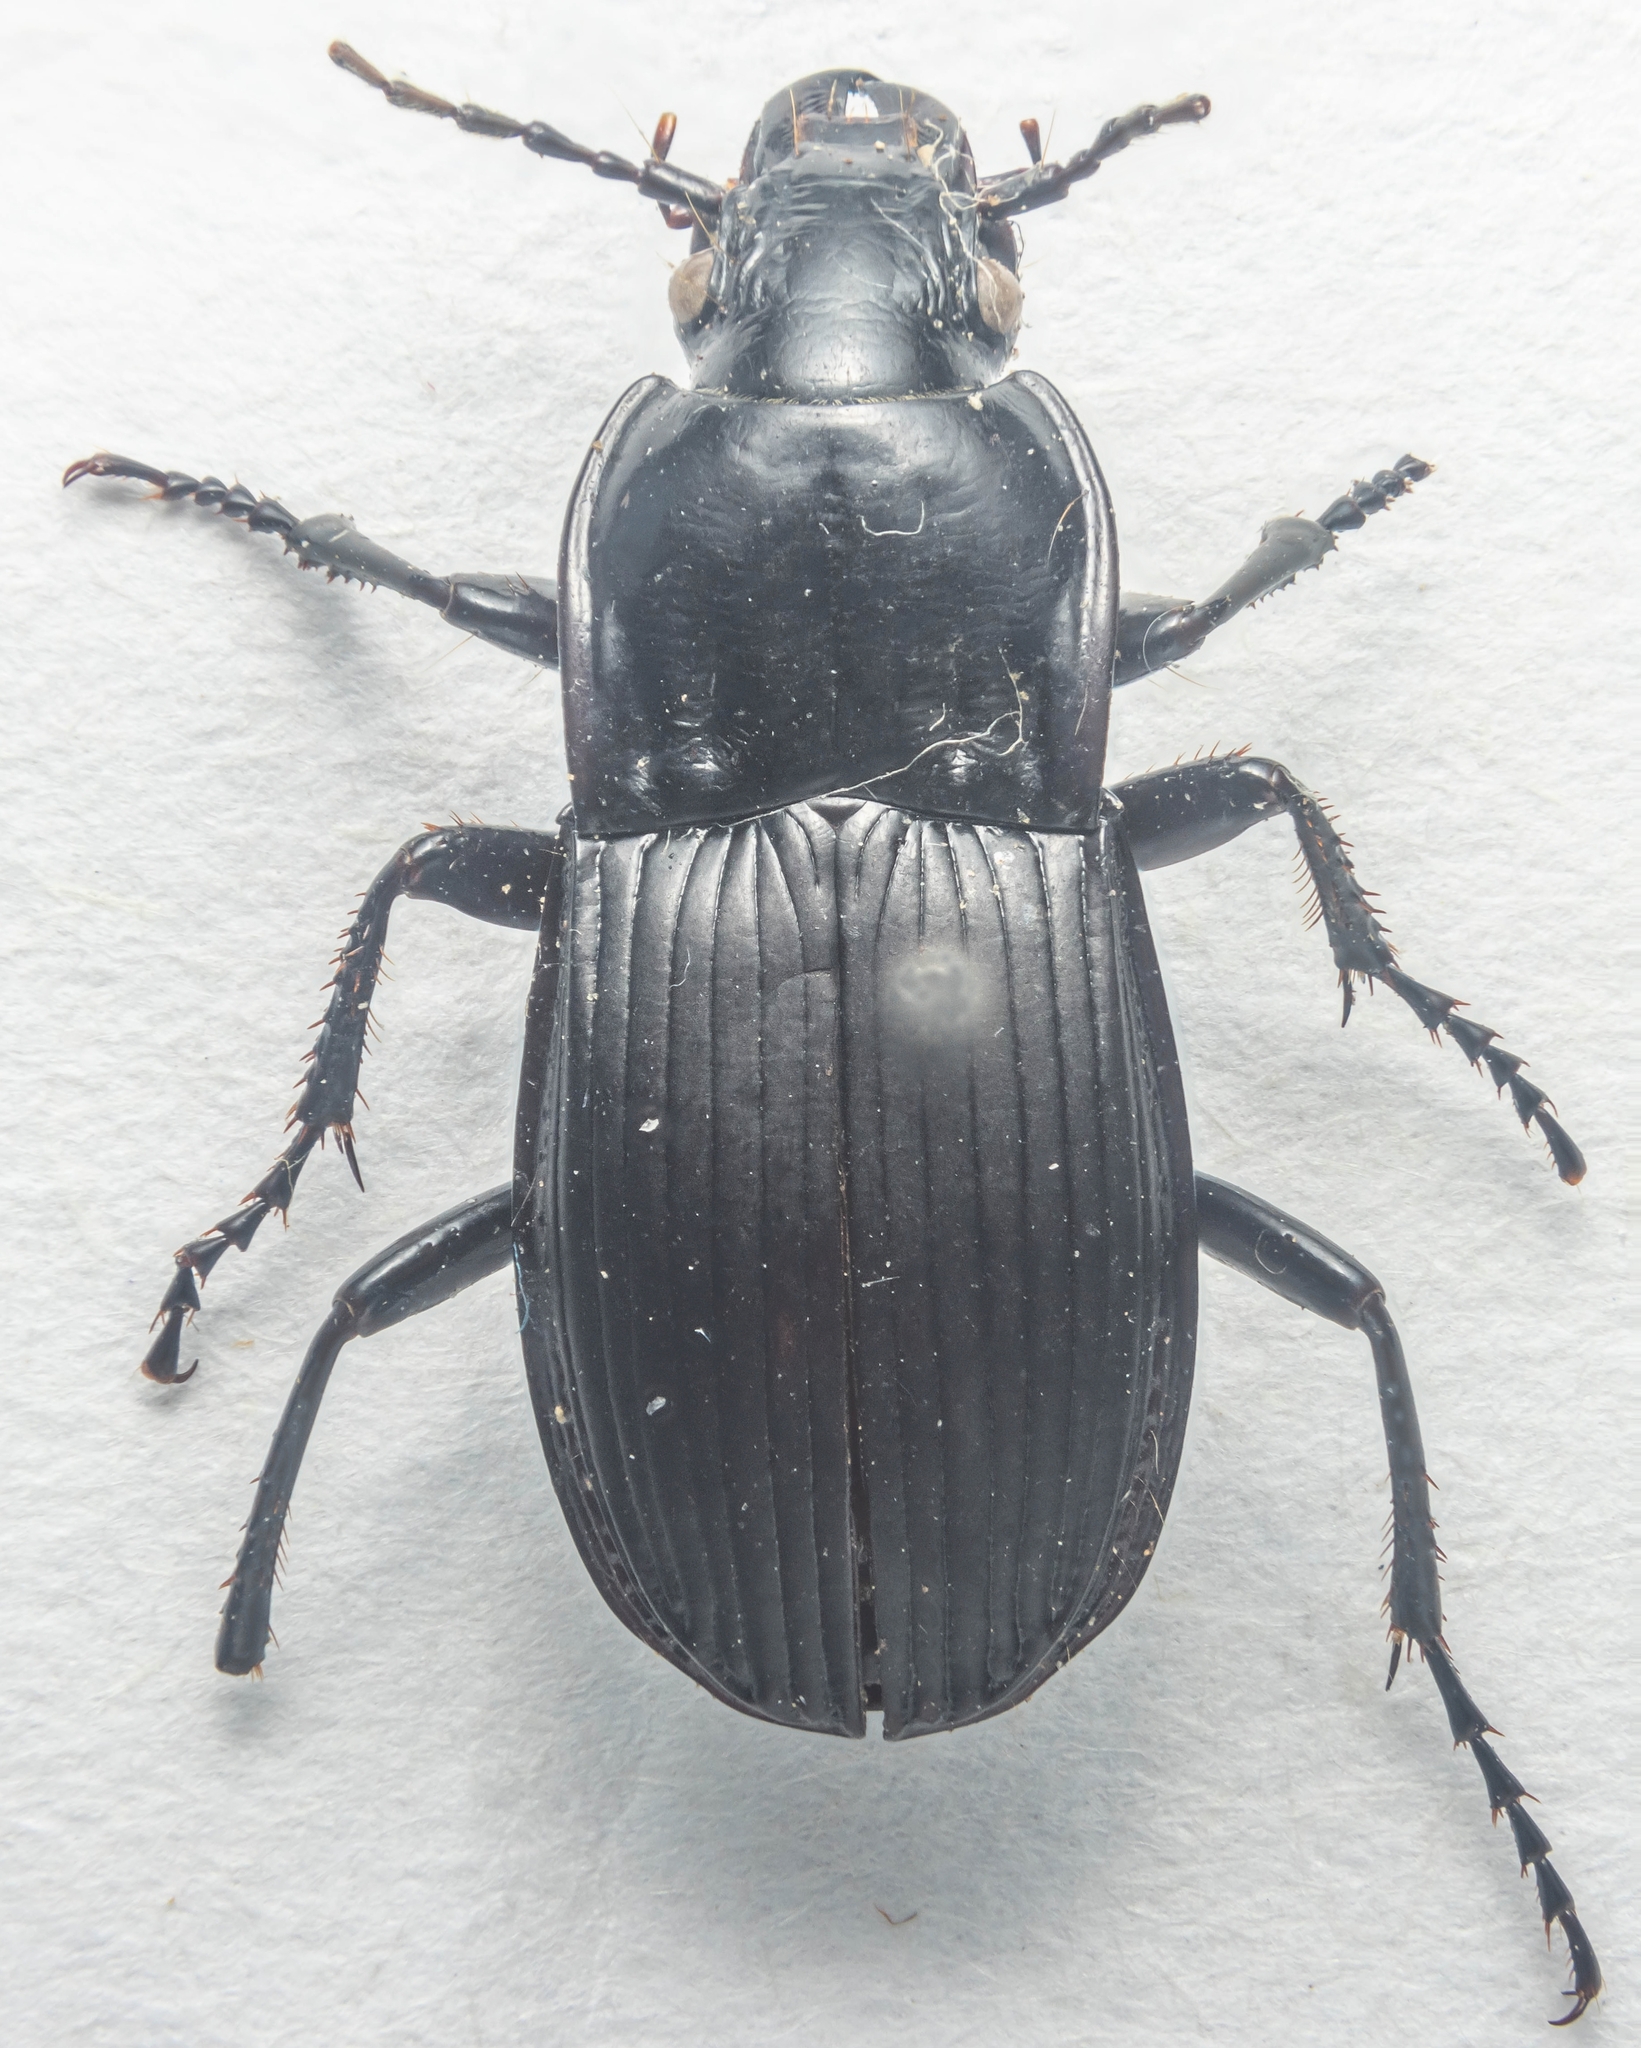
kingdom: Animalia
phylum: Arthropoda
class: Insecta
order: Coleoptera
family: Carabidae
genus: Abax
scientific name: Abax parallelepipedus
